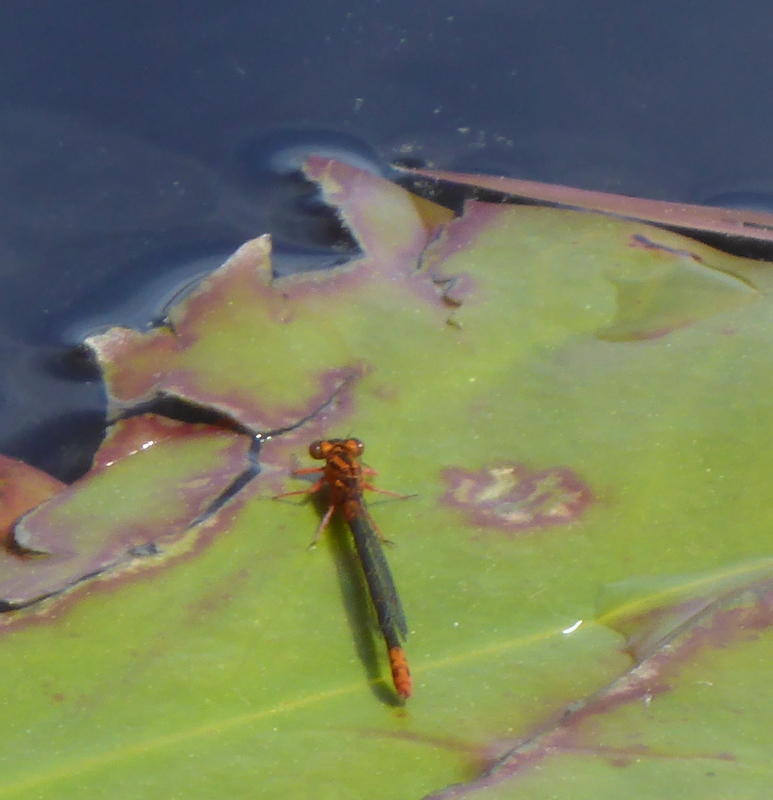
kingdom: Animalia
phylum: Arthropoda
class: Insecta
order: Odonata
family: Coenagrionidae
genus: Ischnura
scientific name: Ischnura kellicotti
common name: Lilypad forktail
